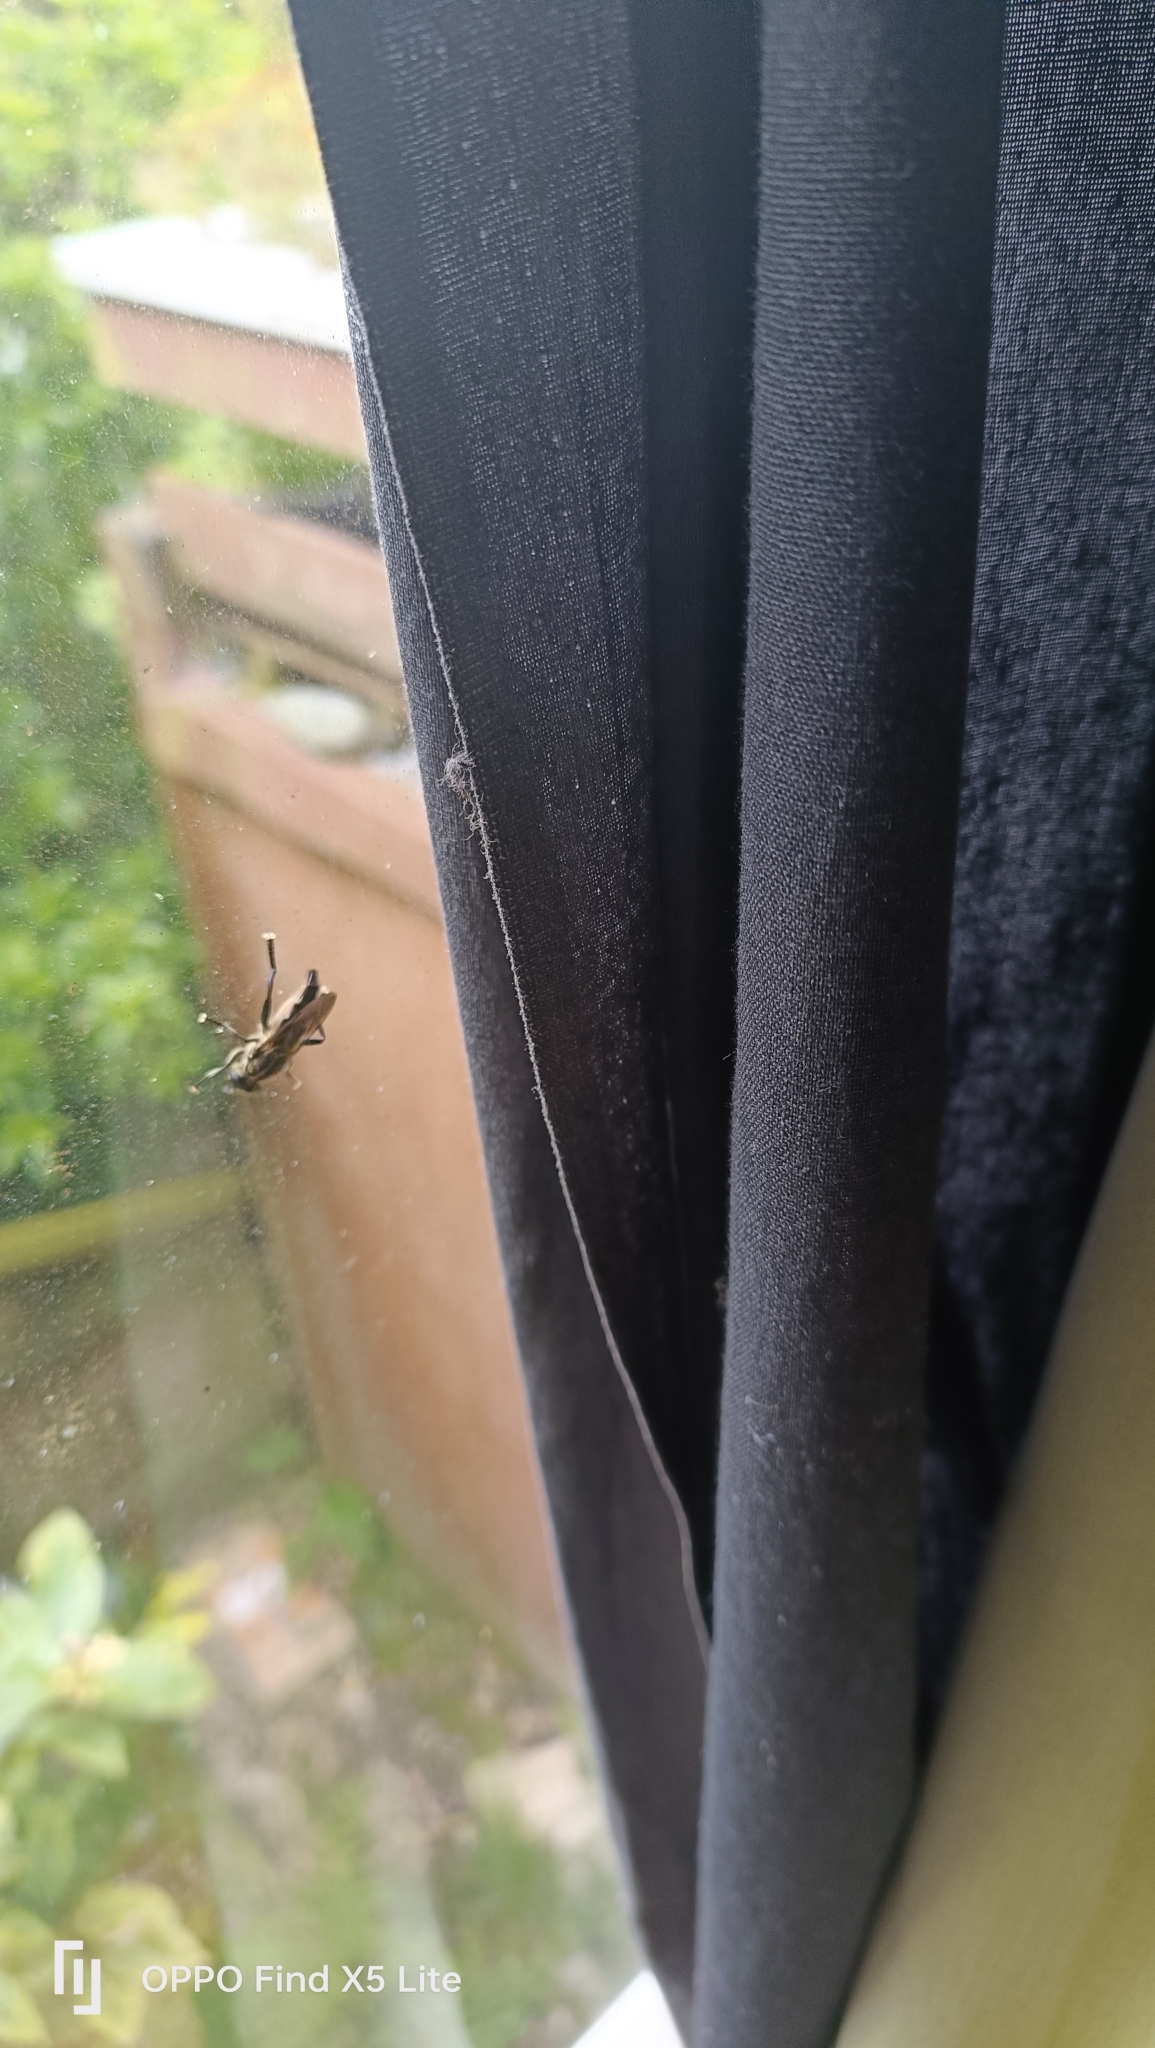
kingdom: Animalia
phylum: Arthropoda
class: Insecta
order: Diptera
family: Syrphidae
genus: Orthoprosopa
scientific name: Orthoprosopa bilineata
